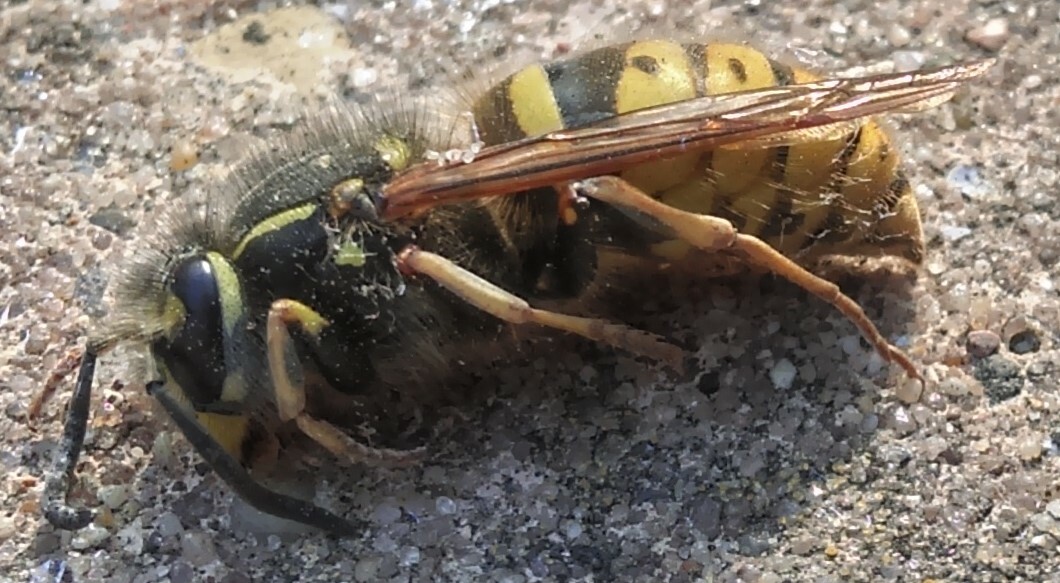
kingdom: Animalia
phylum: Arthropoda
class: Insecta
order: Hymenoptera
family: Vespidae
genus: Vespula
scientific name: Vespula vulgaris
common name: Common wasp
